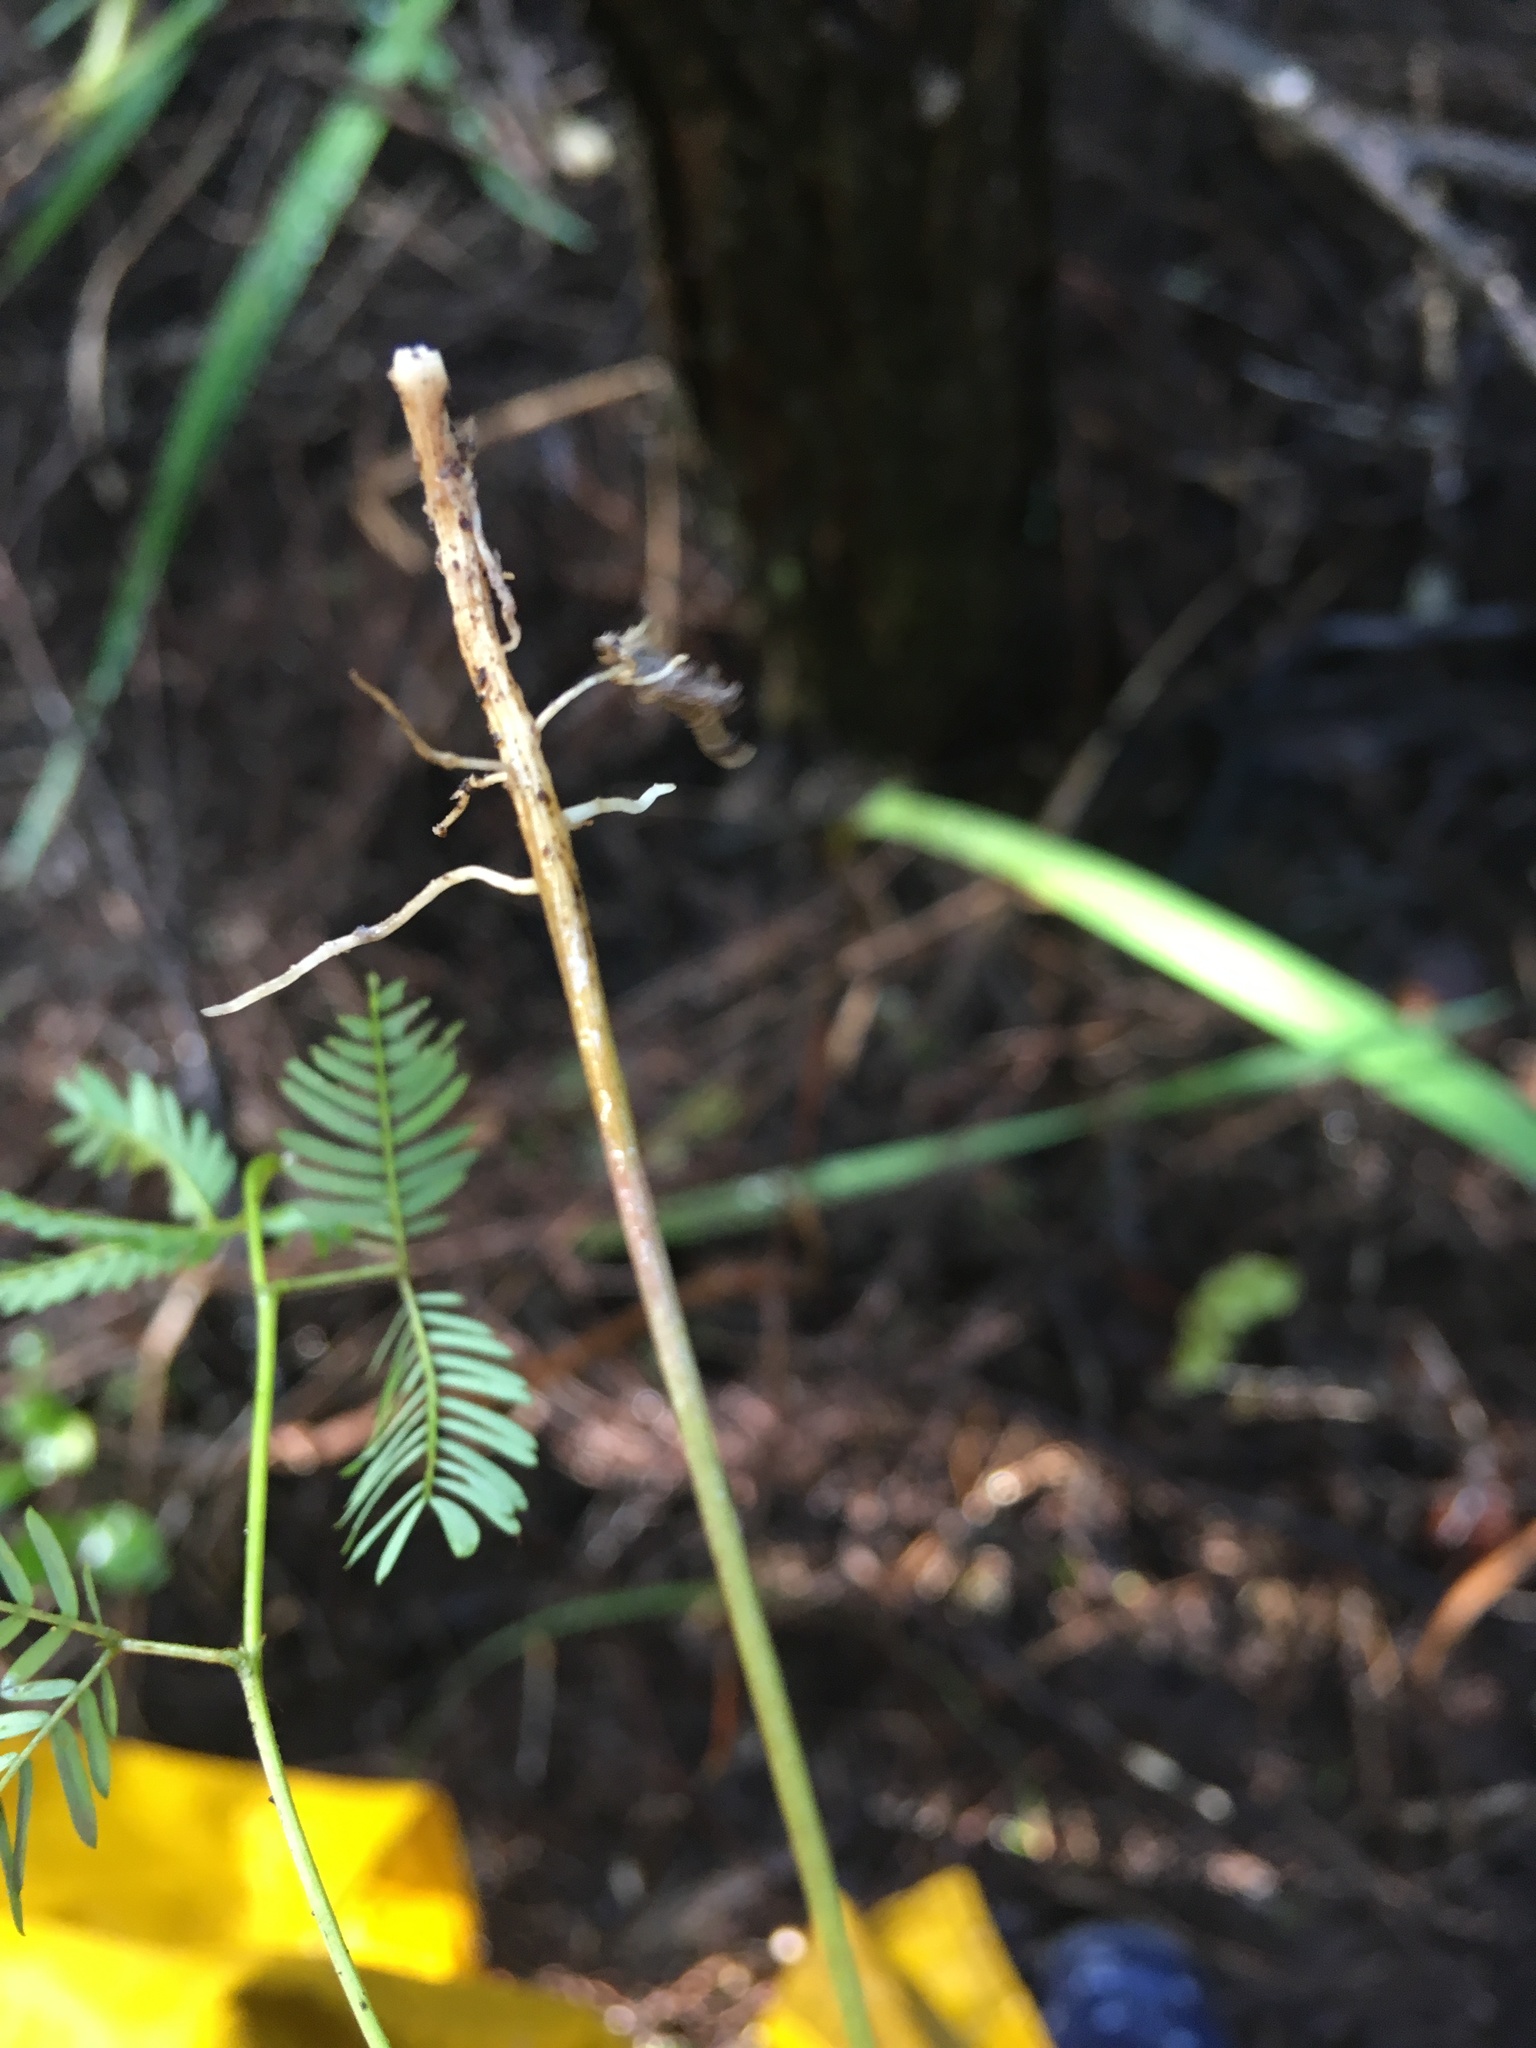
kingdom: Plantae
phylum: Tracheophyta
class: Magnoliopsida
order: Fabales
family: Fabaceae
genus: Paraserianthes
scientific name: Paraserianthes lophantha
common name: Plume albizia
